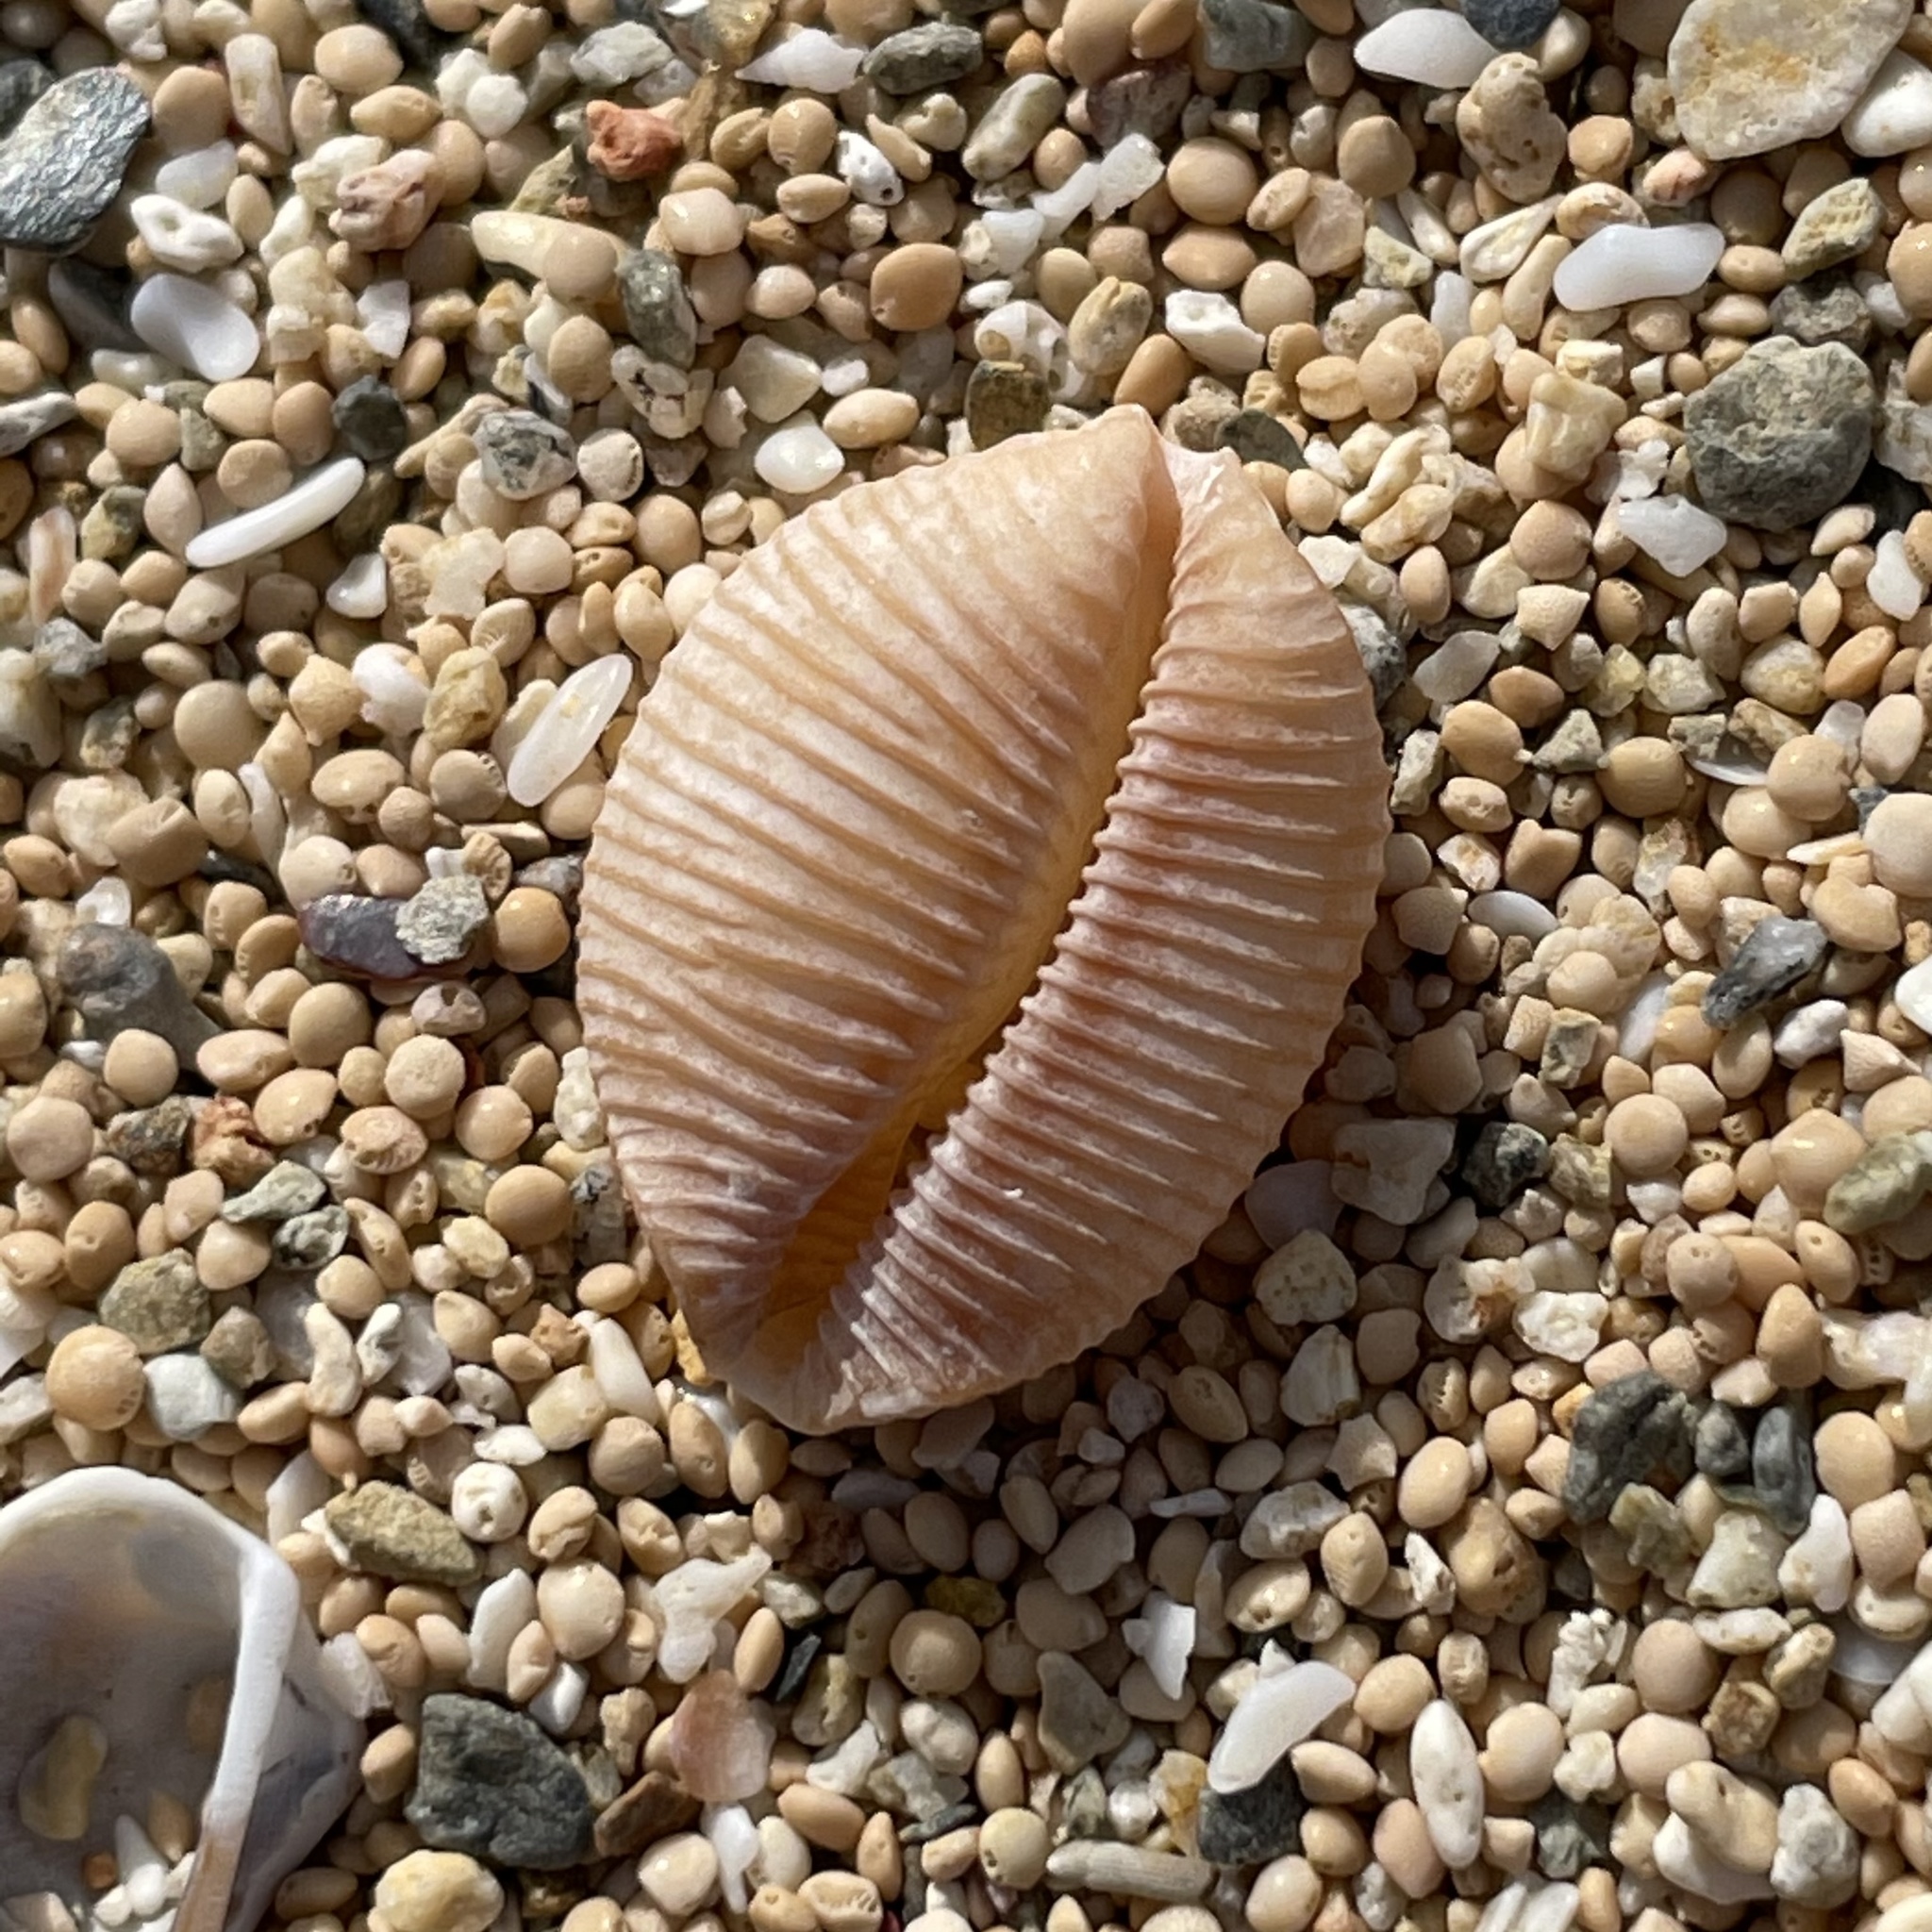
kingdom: Animalia
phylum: Mollusca
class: Gastropoda
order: Littorinimorpha
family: Cypraeidae
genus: Ipsa
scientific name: Ipsa childreni
